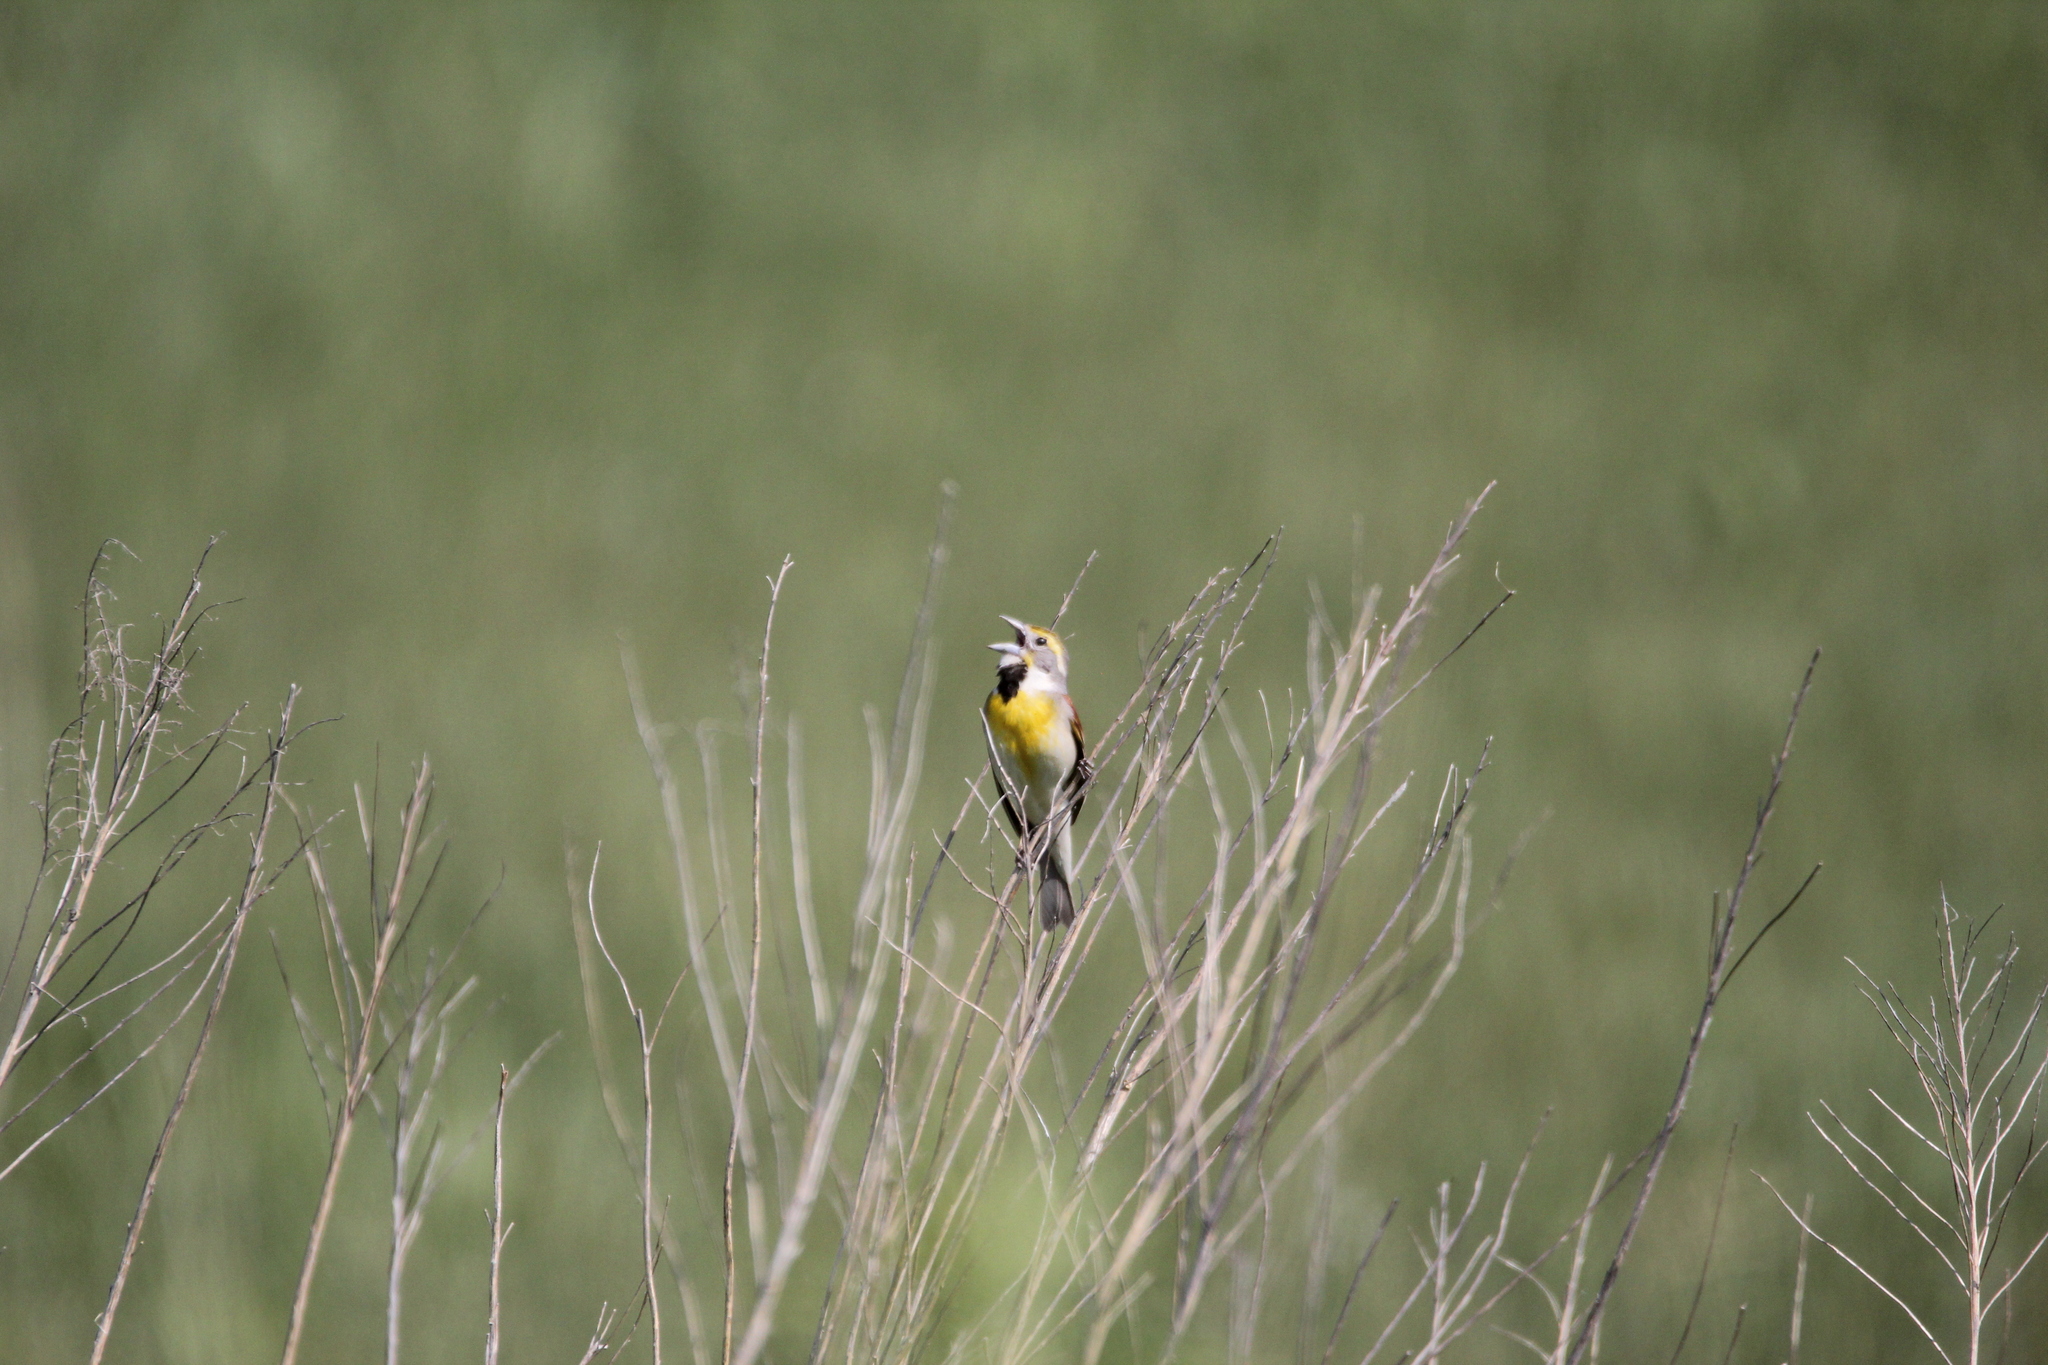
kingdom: Animalia
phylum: Chordata
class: Aves
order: Passeriformes
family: Cardinalidae
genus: Spiza
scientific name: Spiza americana
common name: Dickcissel
